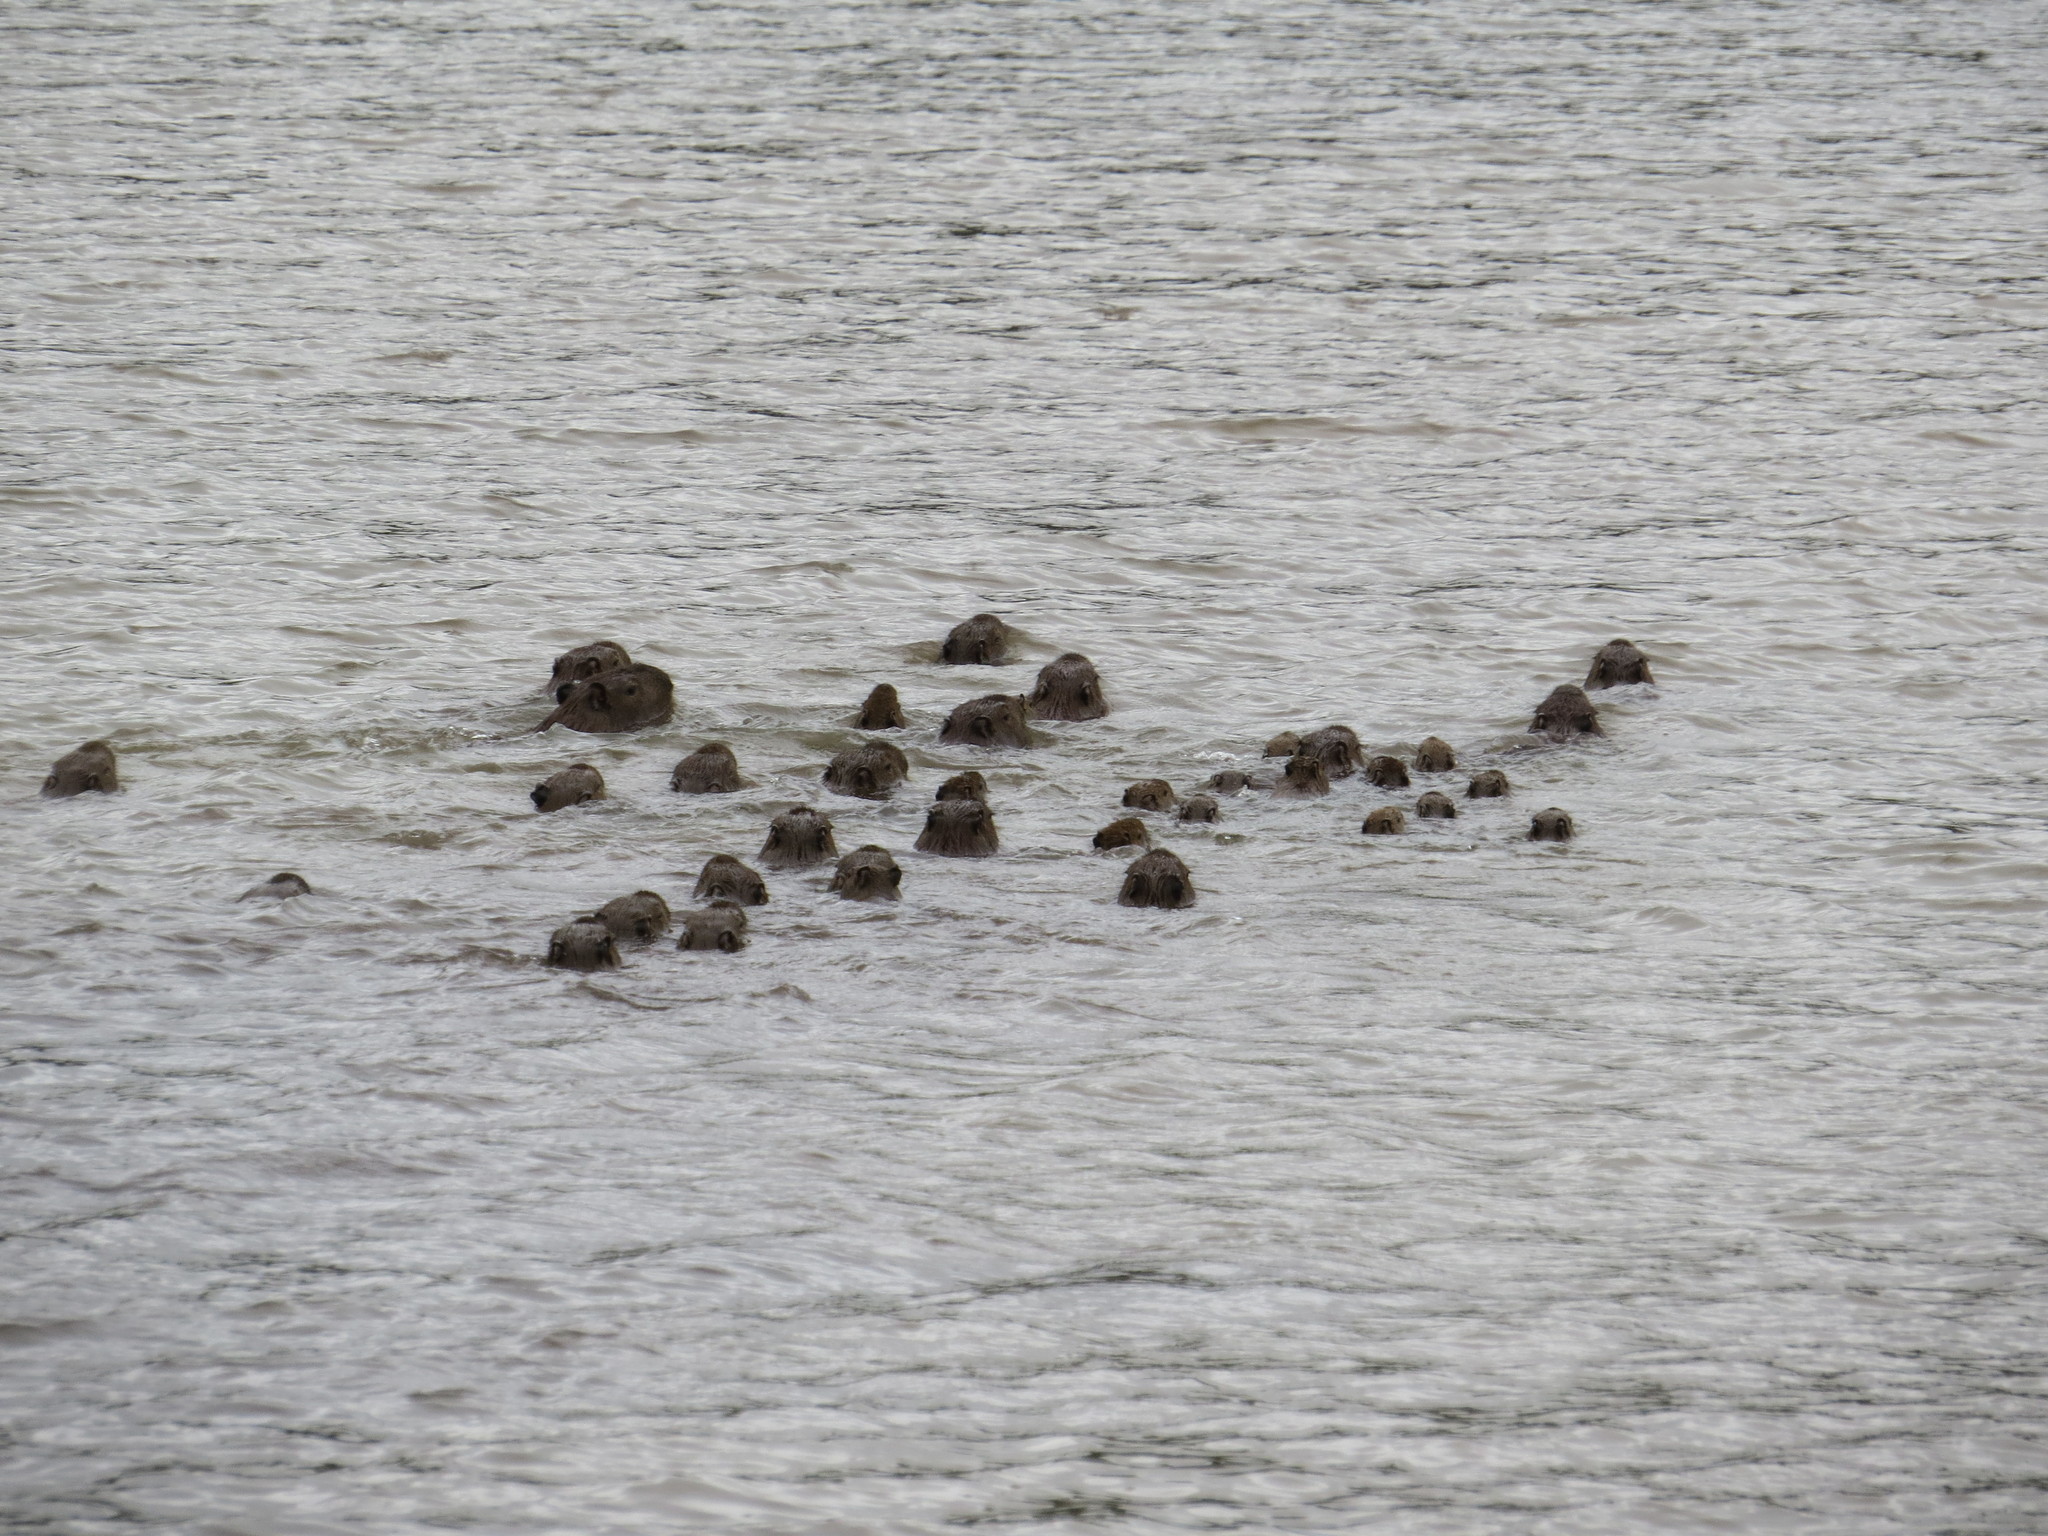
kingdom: Animalia
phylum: Chordata
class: Mammalia
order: Rodentia
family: Caviidae
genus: Hydrochoerus
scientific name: Hydrochoerus hydrochaeris
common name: Capybara
